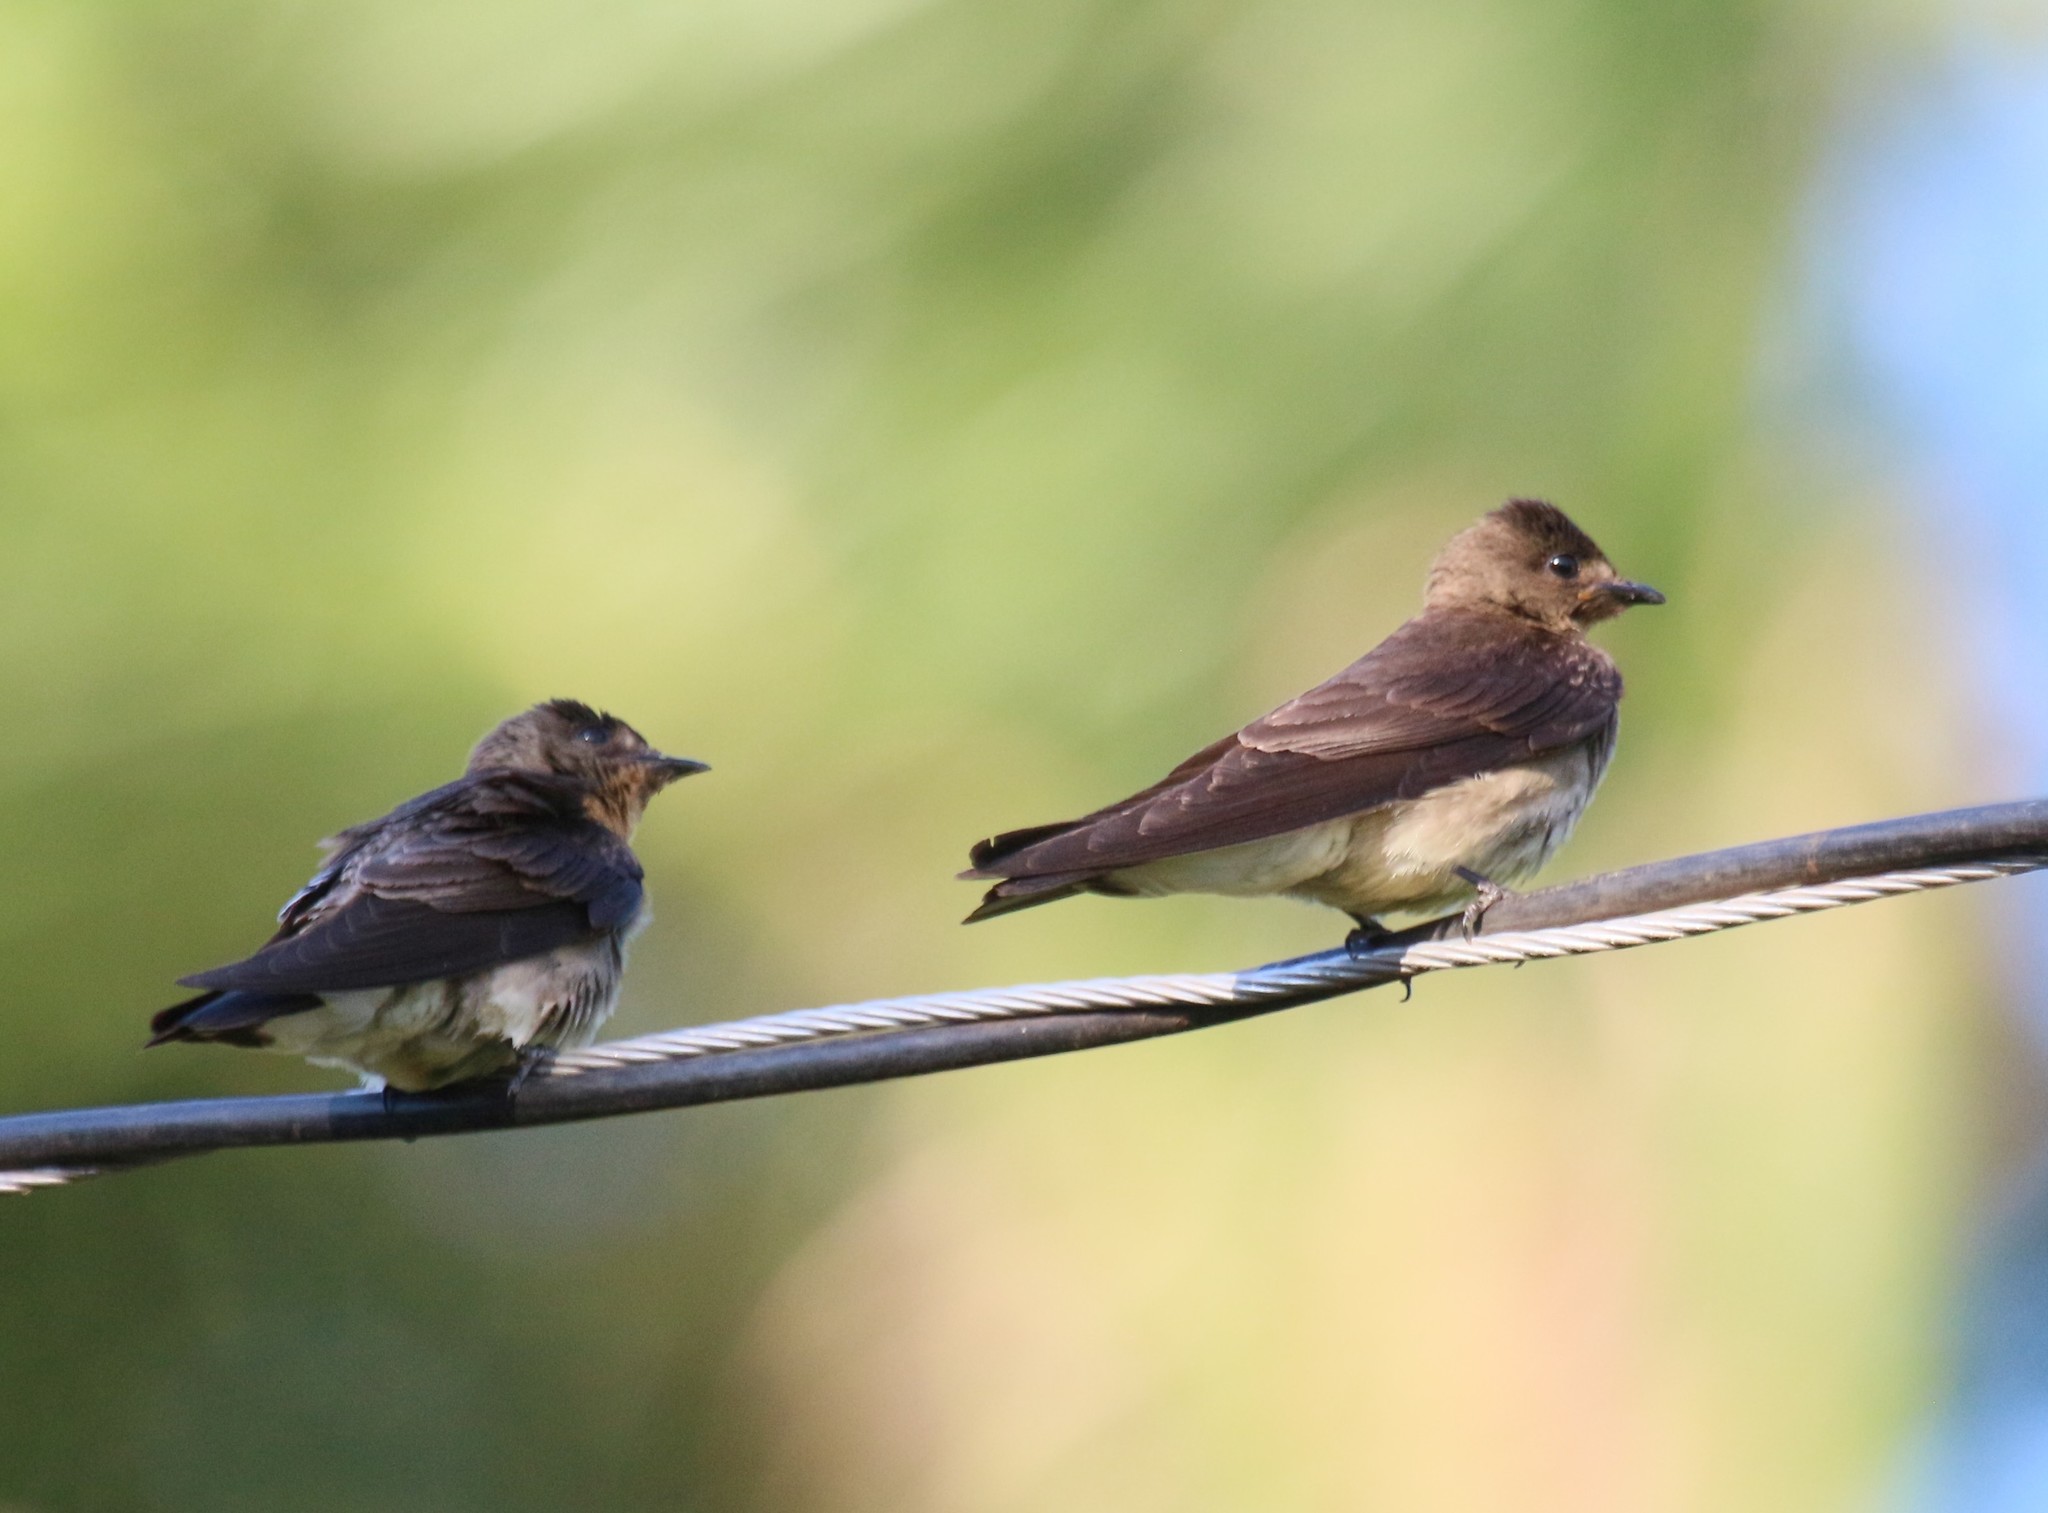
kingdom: Animalia
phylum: Chordata
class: Aves
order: Passeriformes
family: Hirundinidae
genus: Stelgidopteryx
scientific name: Stelgidopteryx ruficollis
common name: Southern rough-winged swallow
